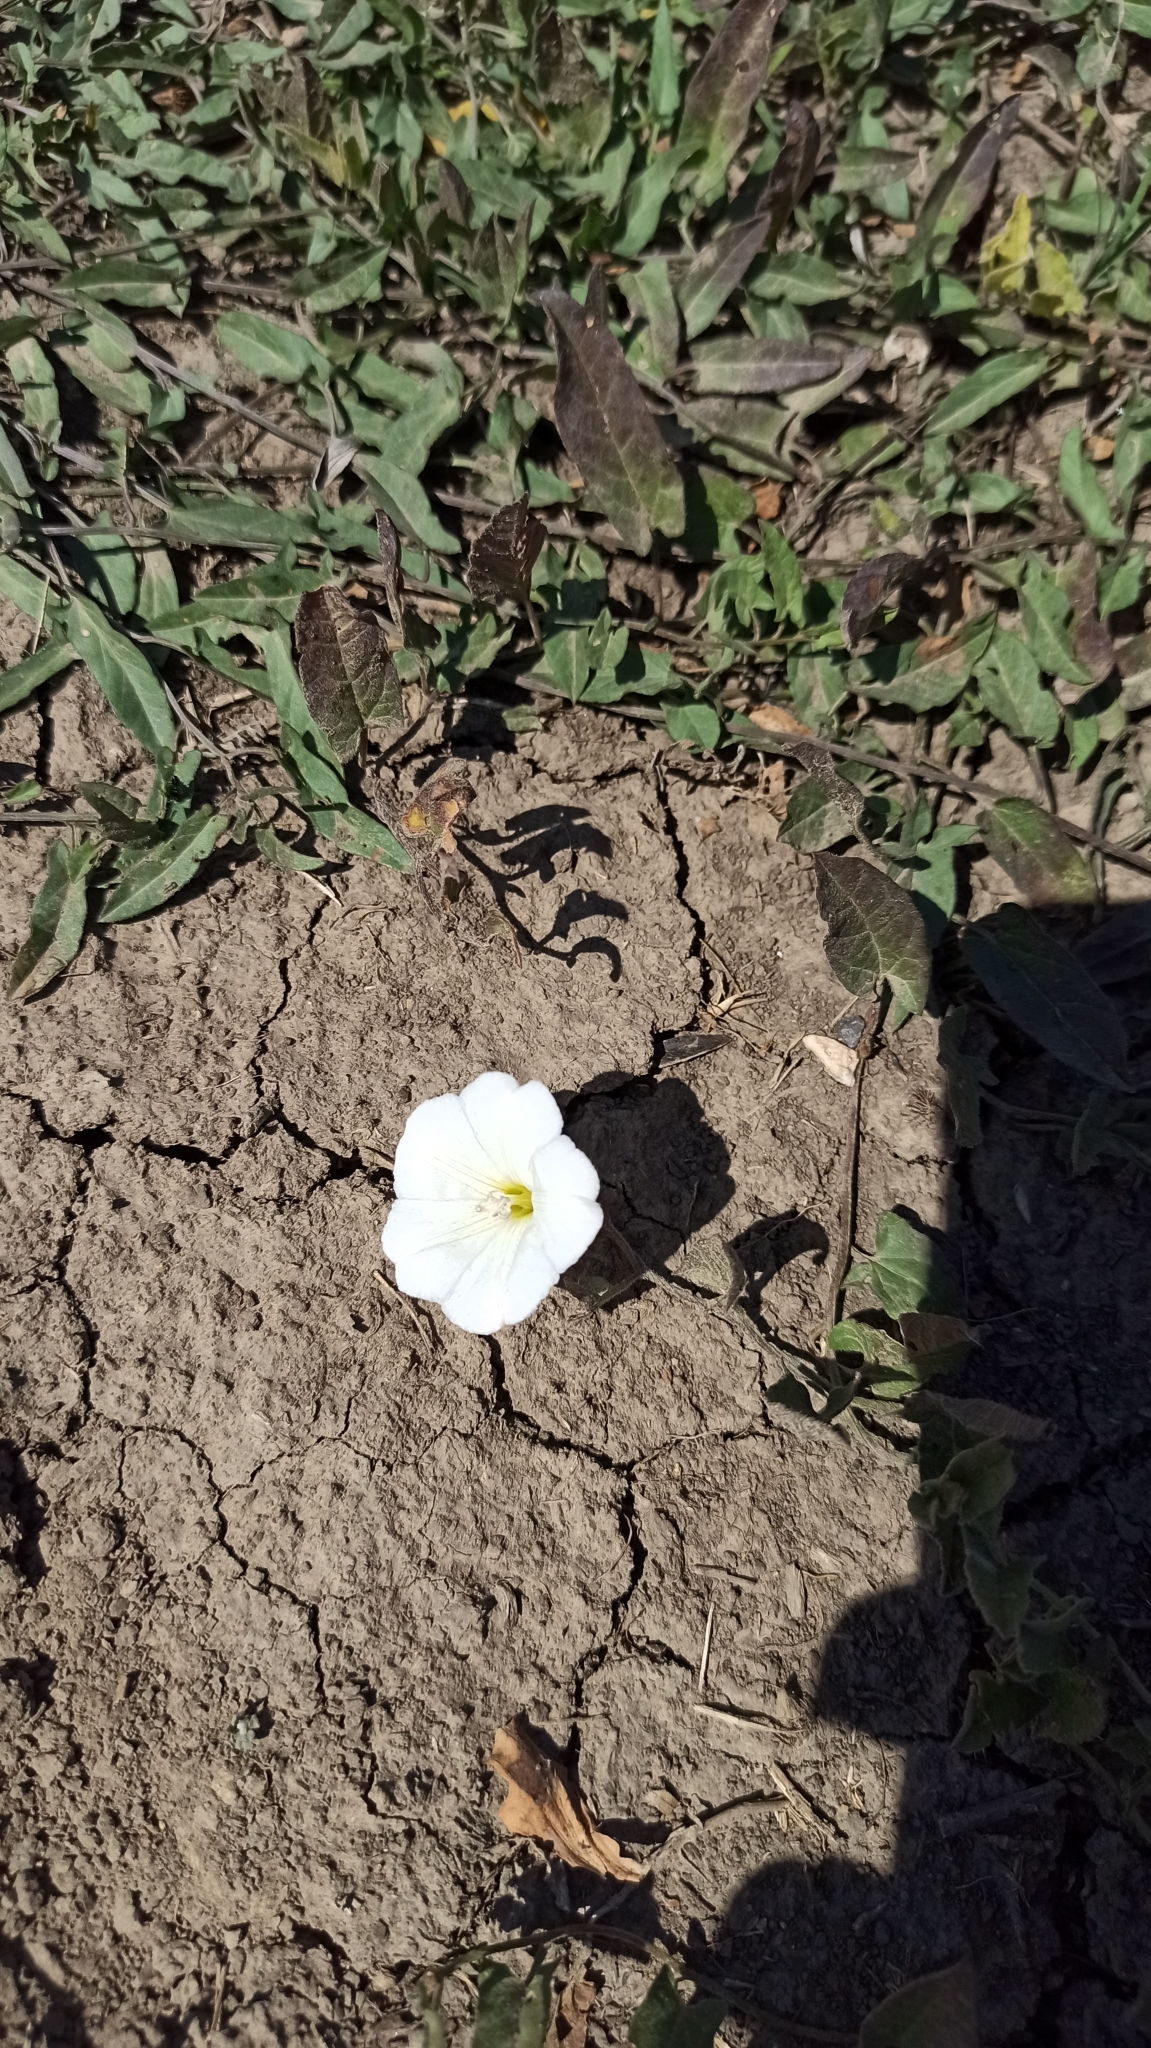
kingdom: Plantae
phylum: Tracheophyta
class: Magnoliopsida
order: Solanales
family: Convolvulaceae
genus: Convolvulus
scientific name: Convolvulus arvensis
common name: Field bindweed
